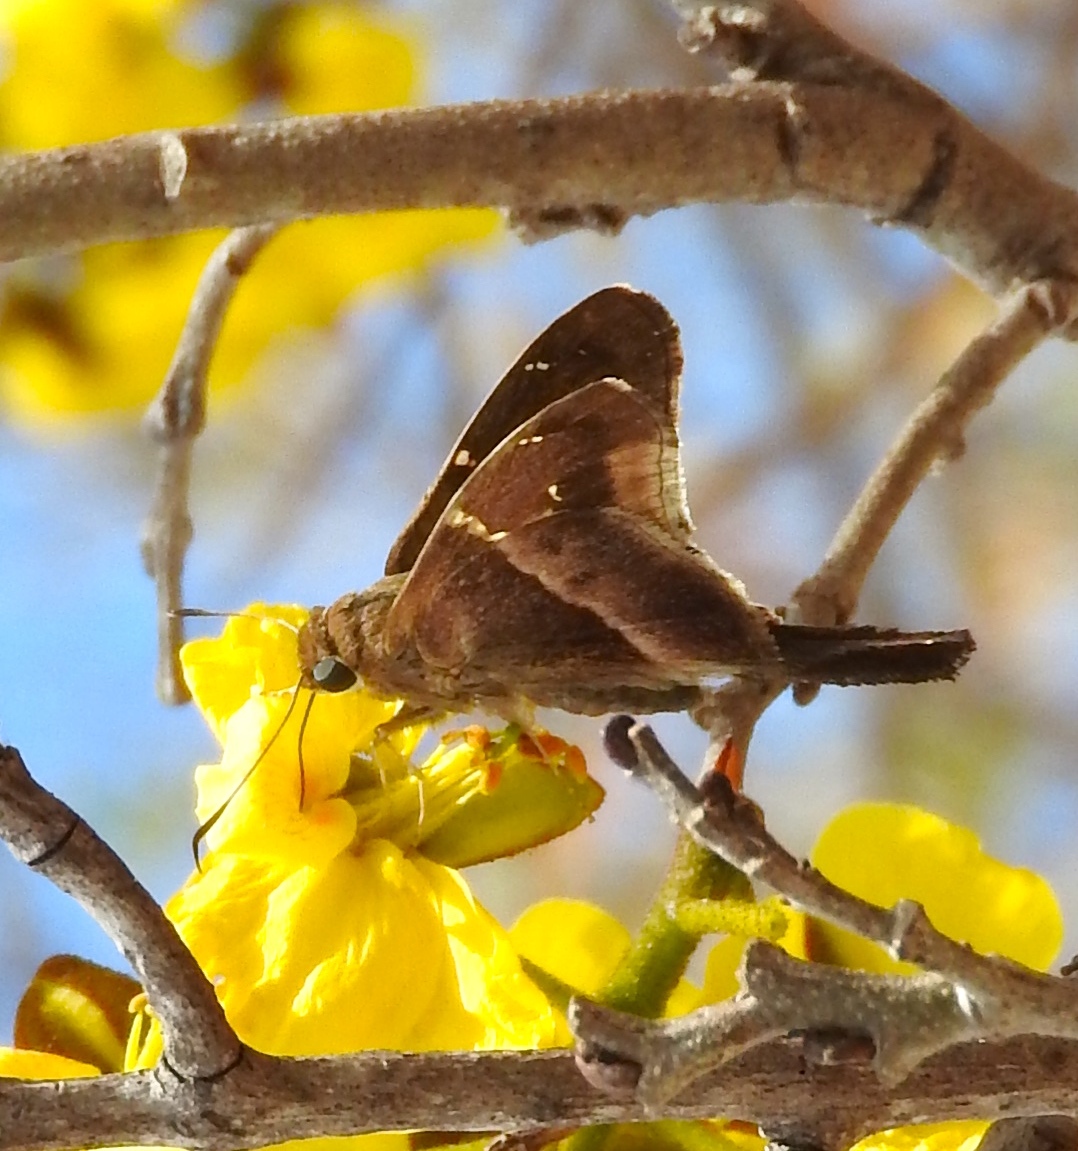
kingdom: Animalia
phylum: Arthropoda
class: Insecta
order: Lepidoptera
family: Hesperiidae
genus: Aguna
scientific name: Aguna metophis
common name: Tailed aguna
